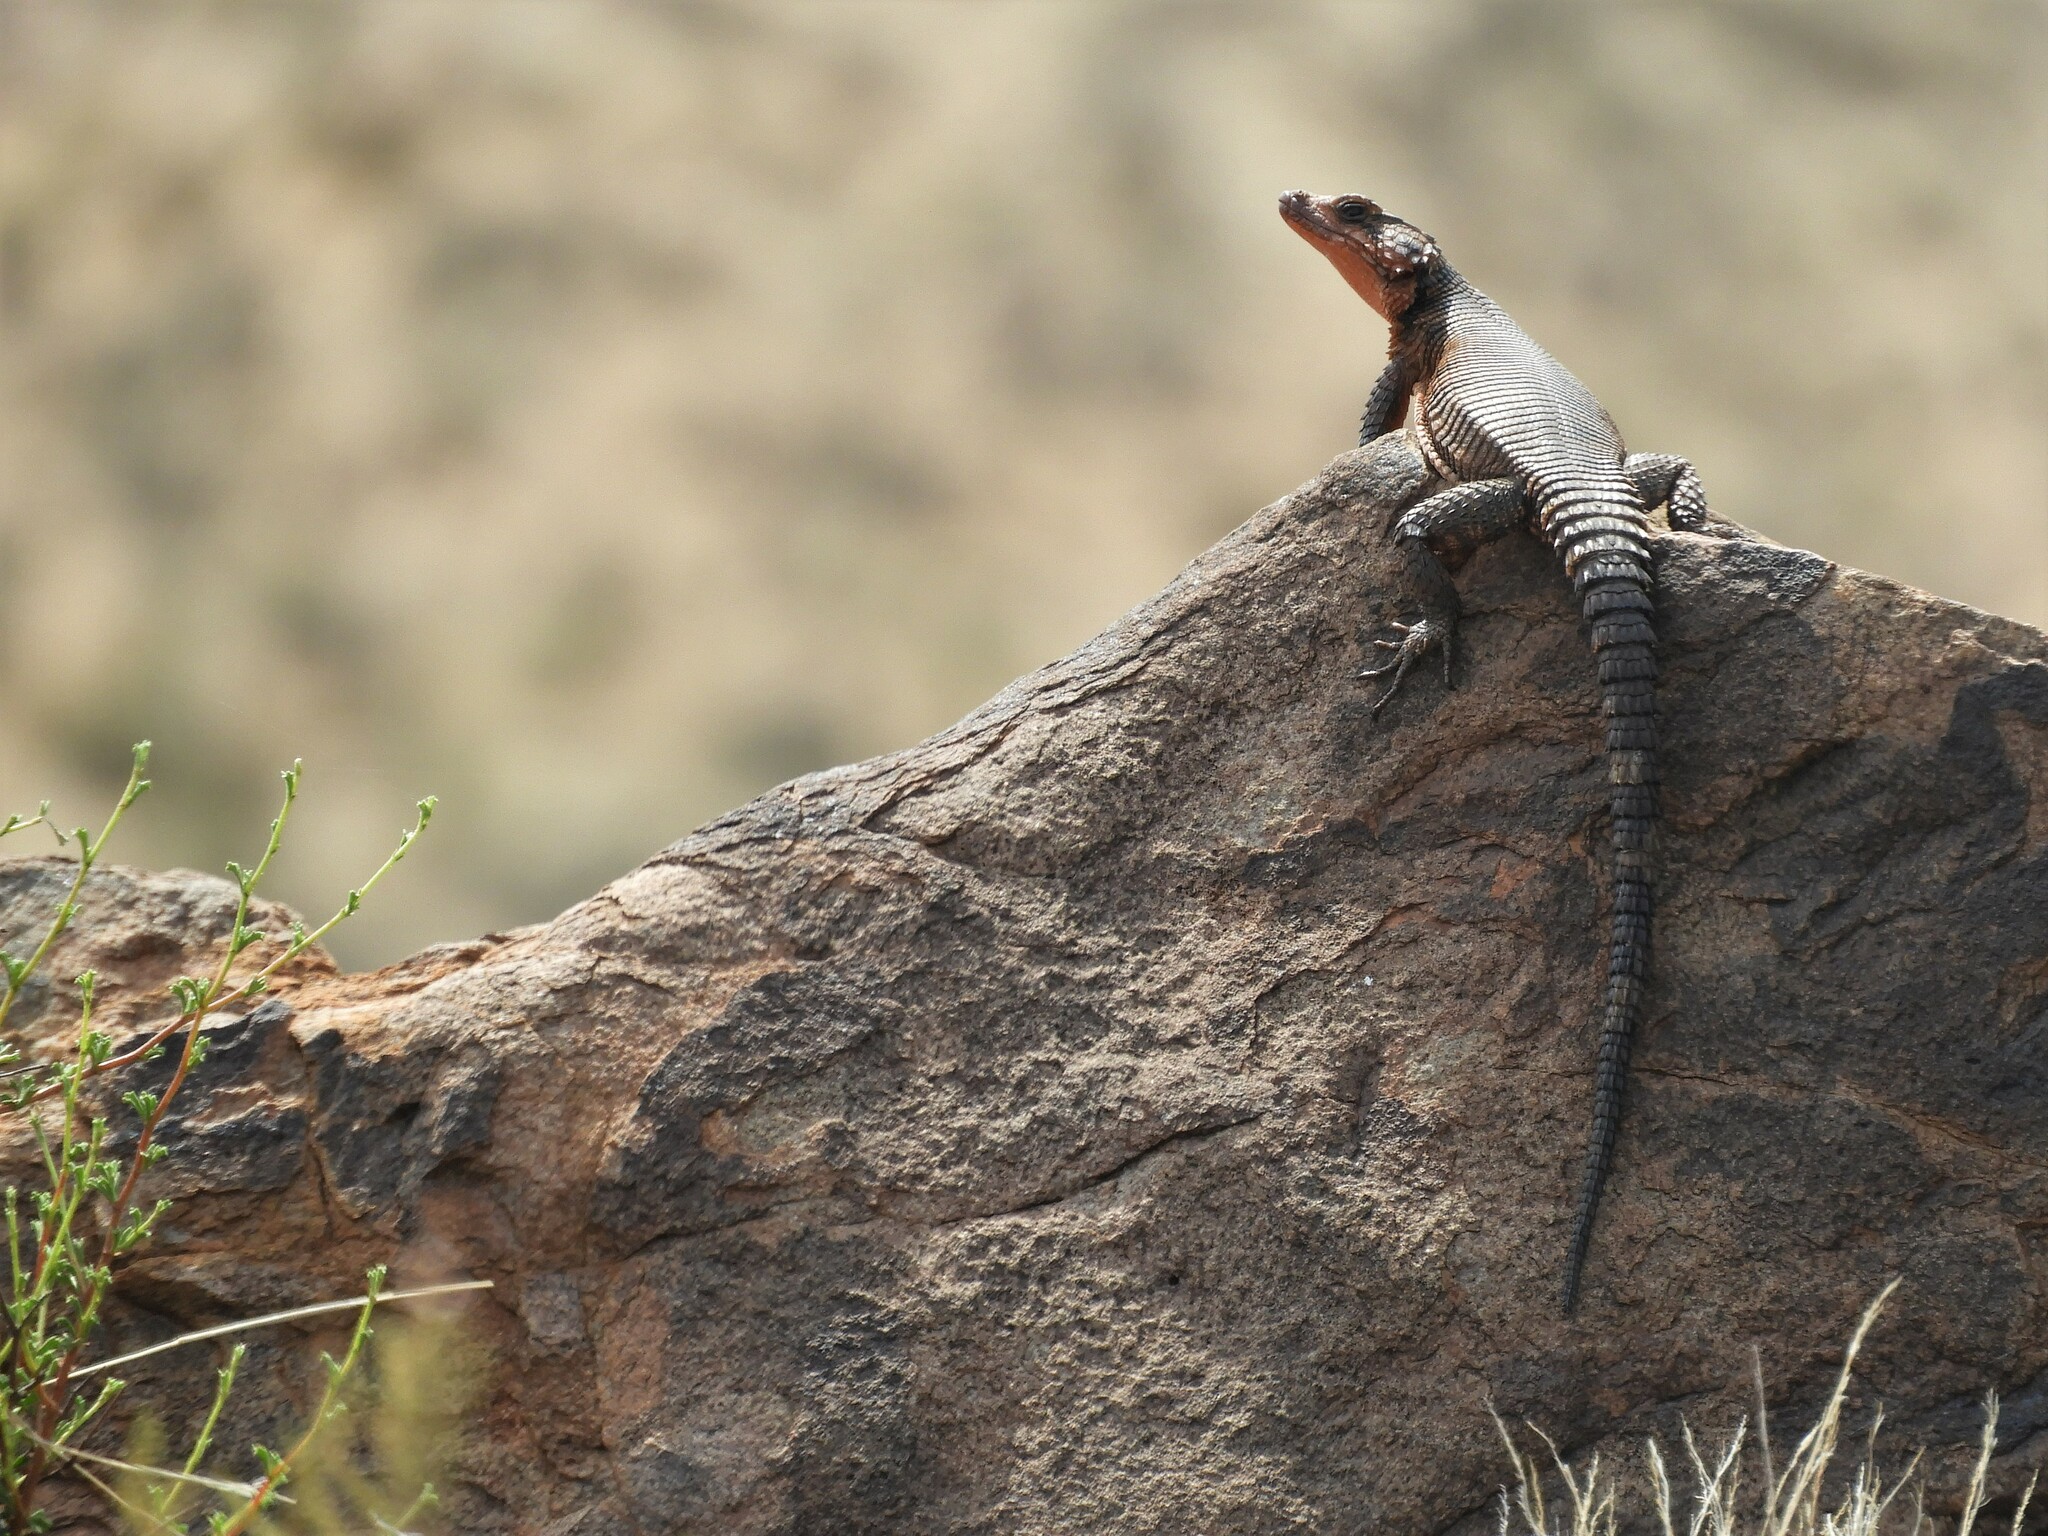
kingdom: Animalia
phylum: Chordata
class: Squamata
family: Cordylidae
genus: Karusasaurus
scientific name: Karusasaurus polyzonus
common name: Karoo girdled lizard
